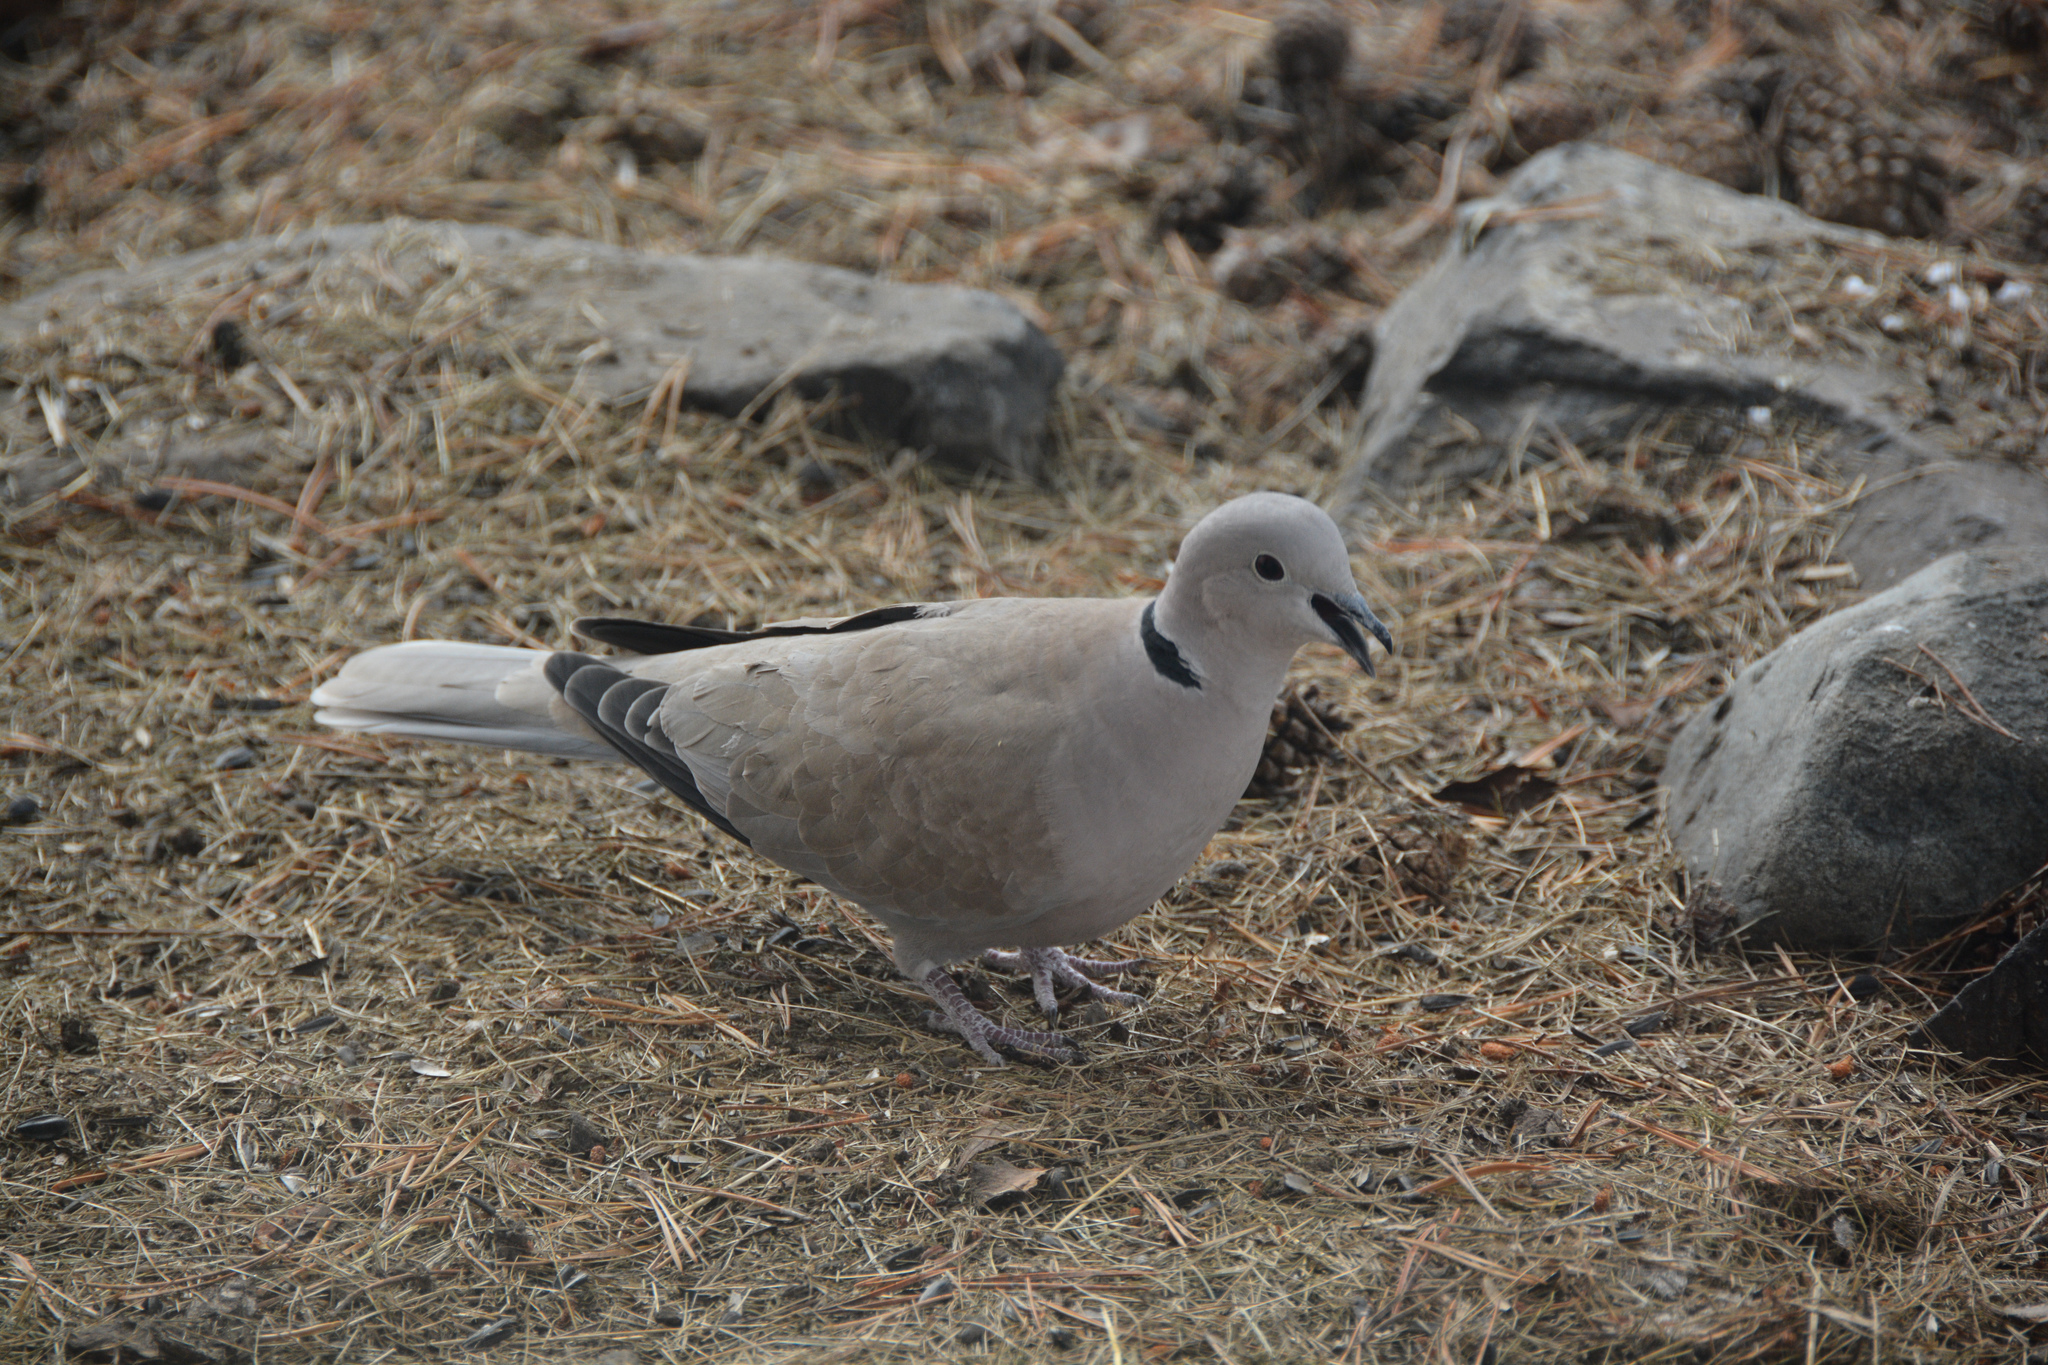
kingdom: Animalia
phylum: Chordata
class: Aves
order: Columbiformes
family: Columbidae
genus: Streptopelia
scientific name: Streptopelia decaocto
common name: Eurasian collared dove
